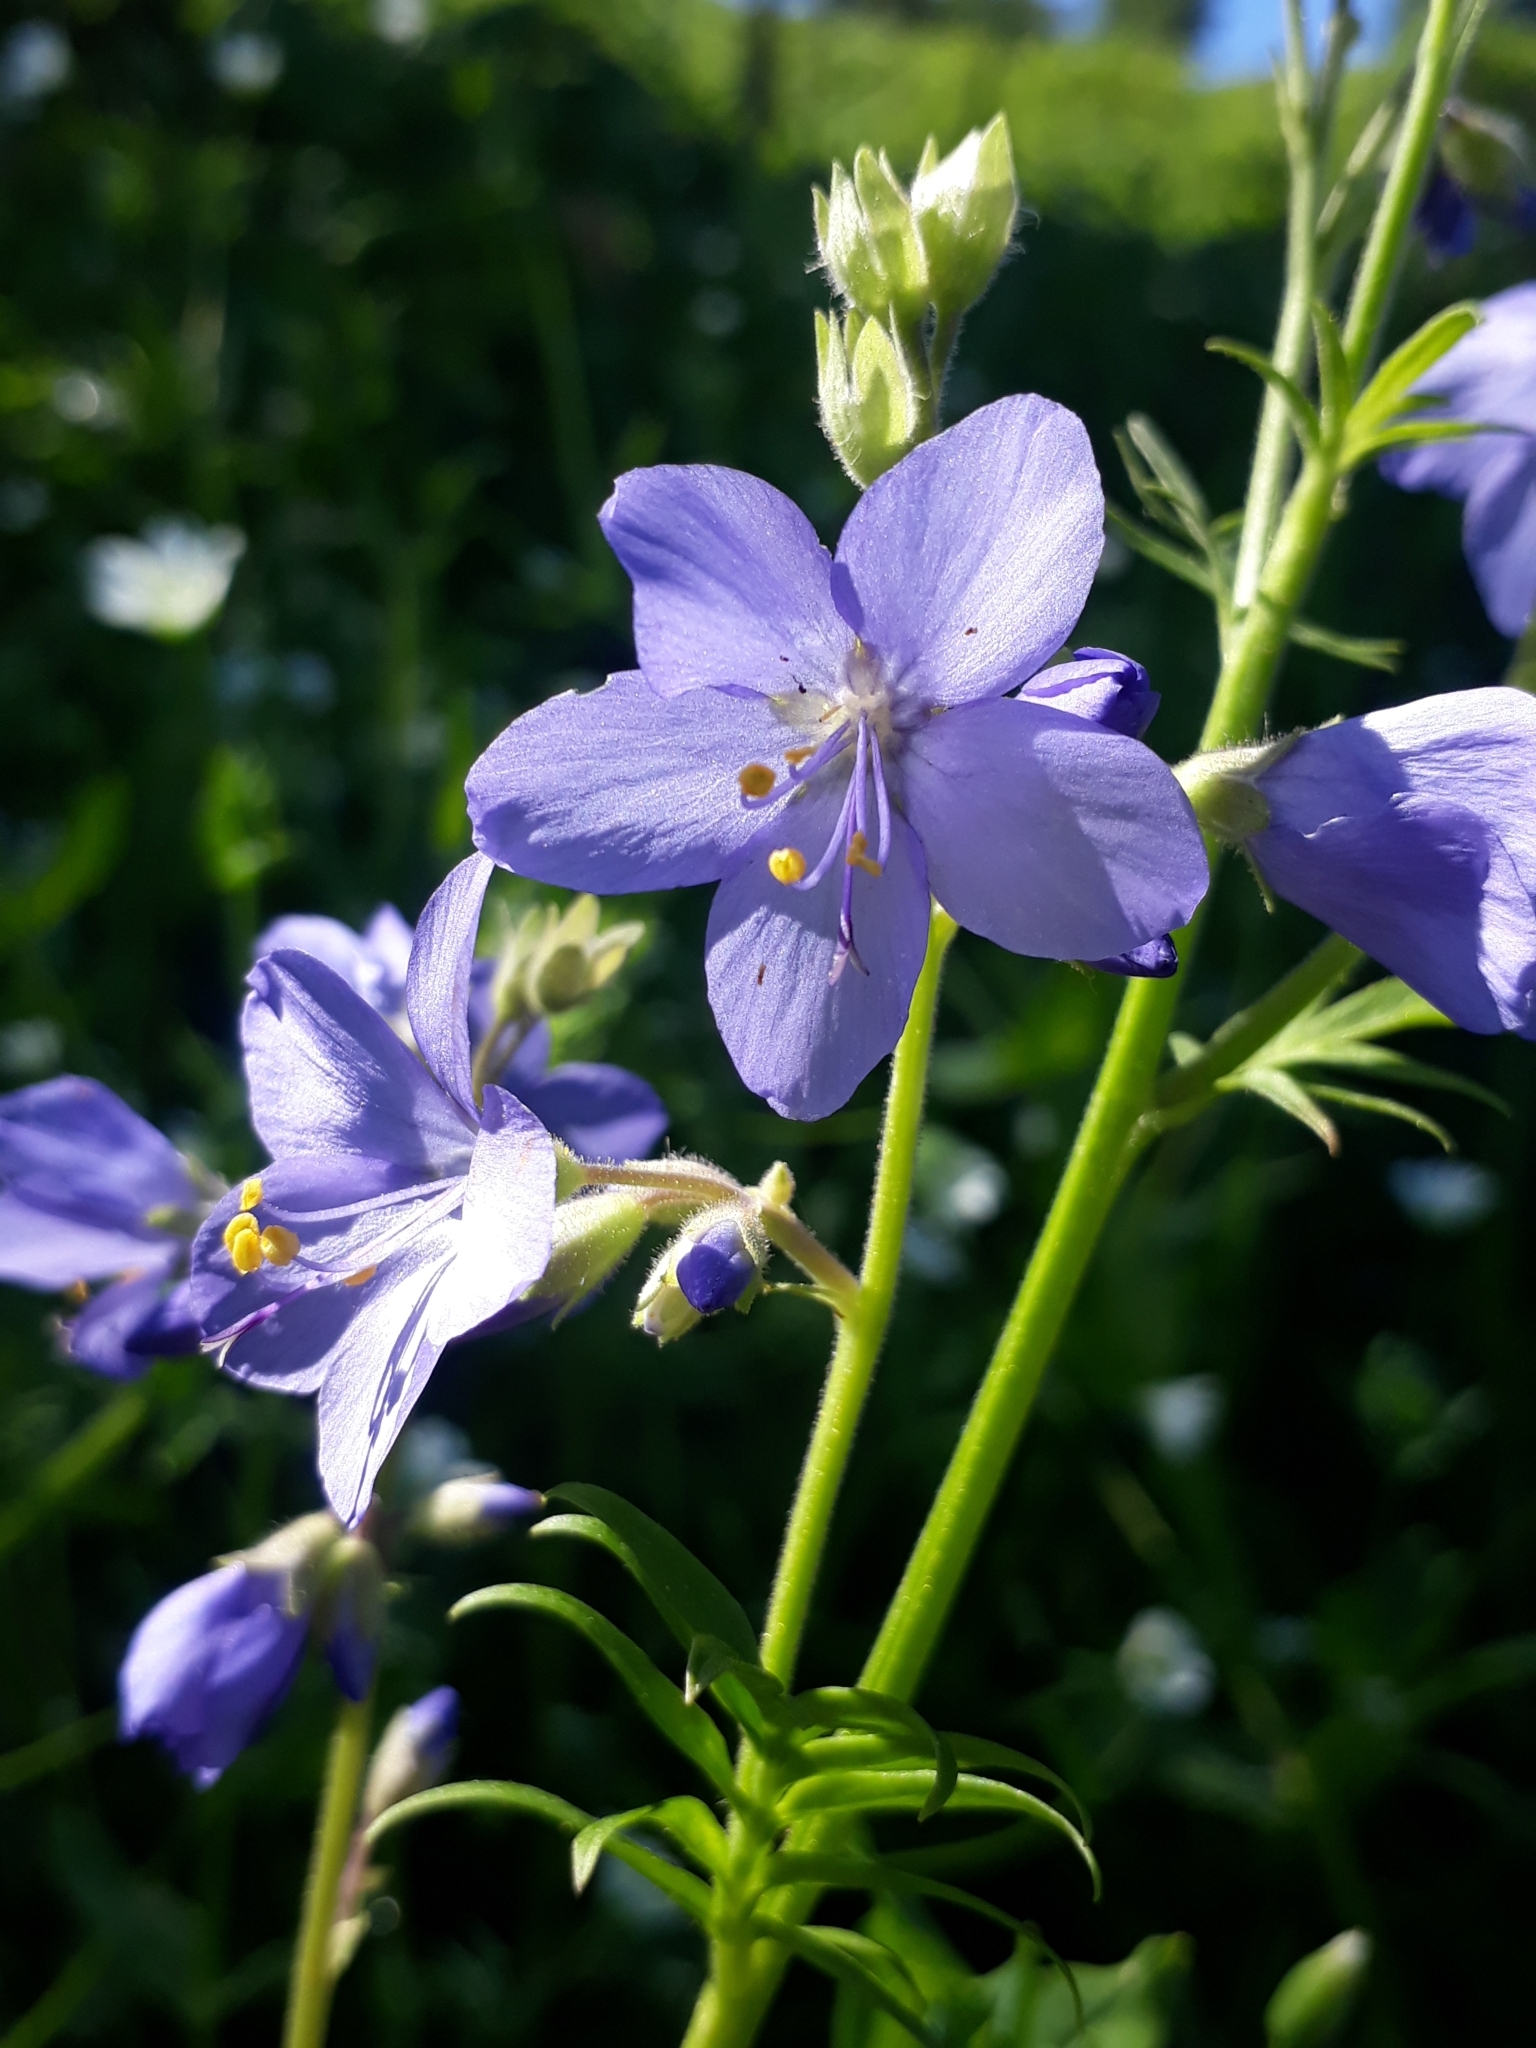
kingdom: Plantae
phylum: Tracheophyta
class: Magnoliopsida
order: Ericales
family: Polemoniaceae
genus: Polemonium
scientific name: Polemonium caeruleum
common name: Jacob's-ladder
